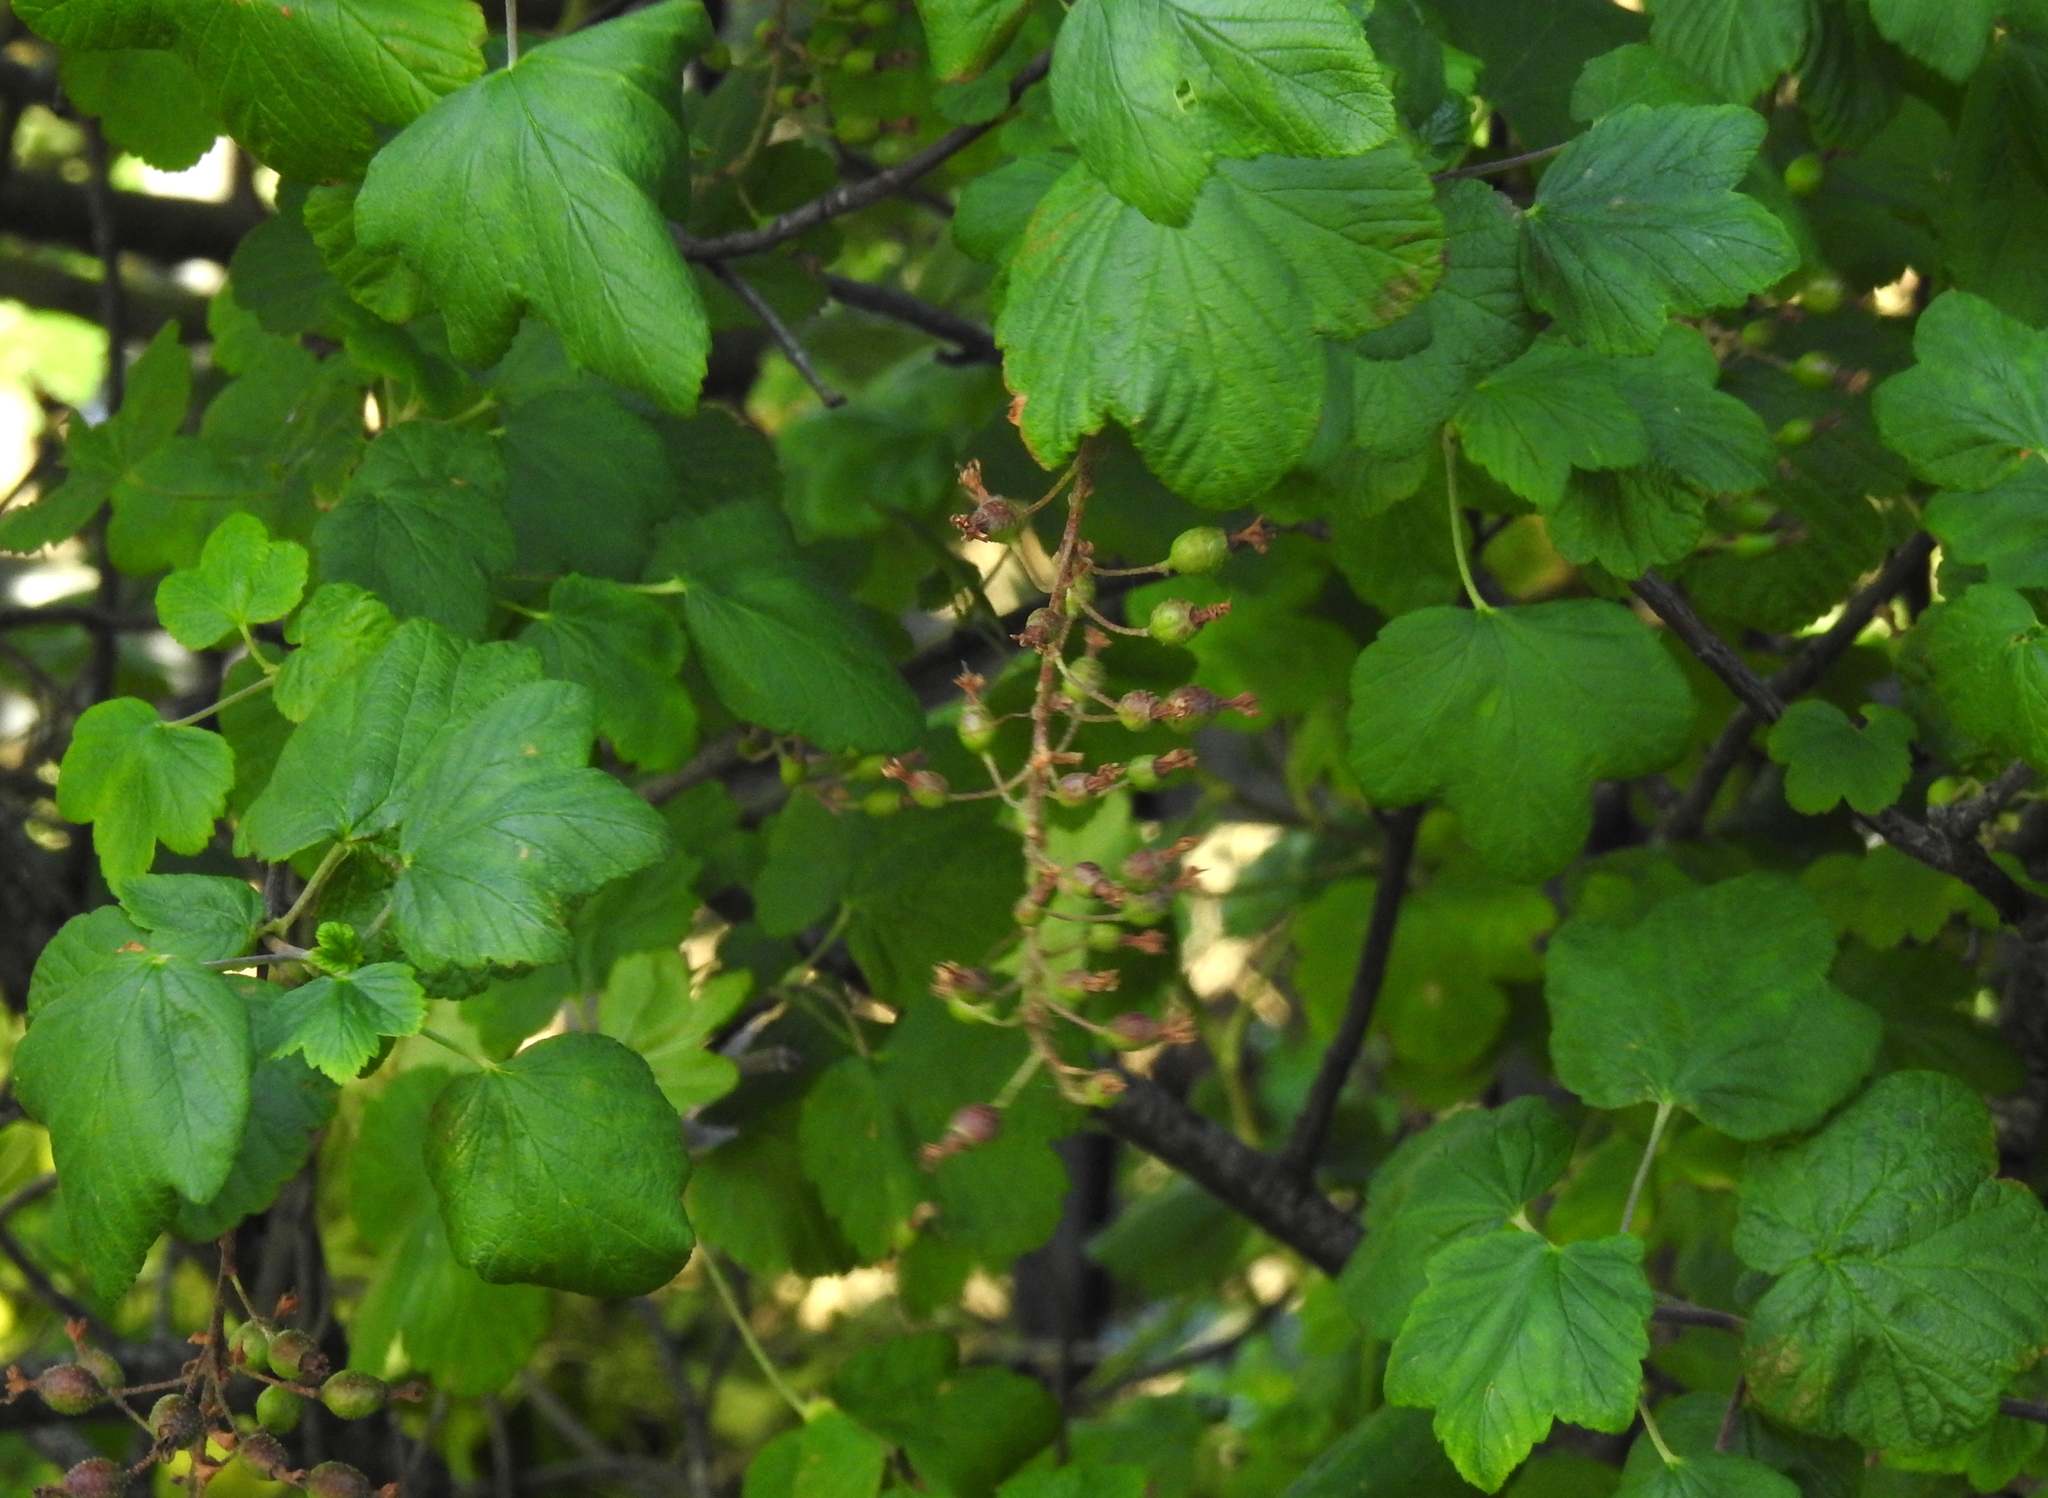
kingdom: Plantae
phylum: Tracheophyta
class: Magnoliopsida
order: Saxifragales
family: Grossulariaceae
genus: Ribes
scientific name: Ribes sanguineum
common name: Flowering currant
